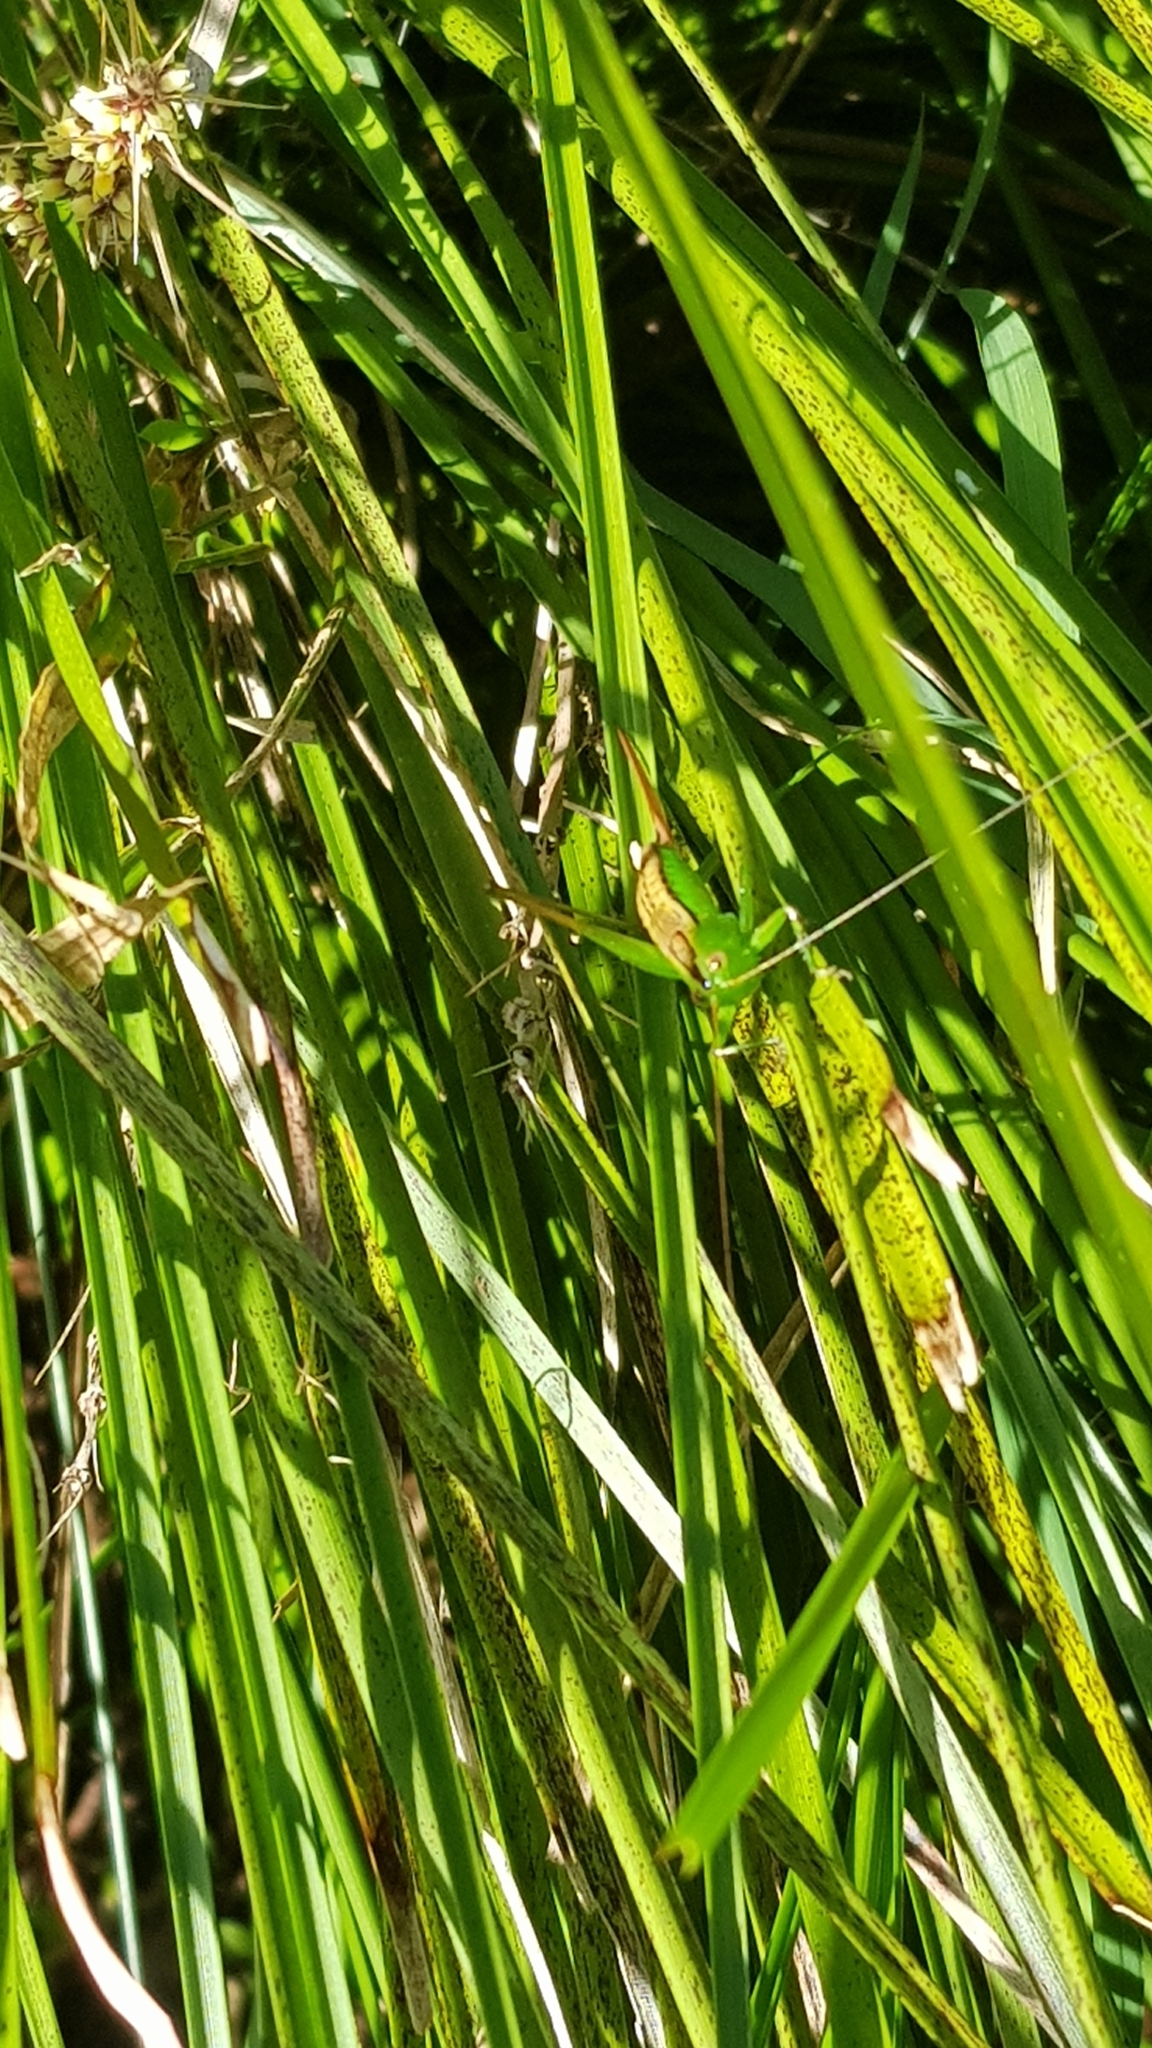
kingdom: Animalia
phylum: Arthropoda
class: Insecta
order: Orthoptera
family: Tettigoniidae
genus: Conocephalus
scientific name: Conocephalus semivittatus
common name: Blackish meadow katydid
